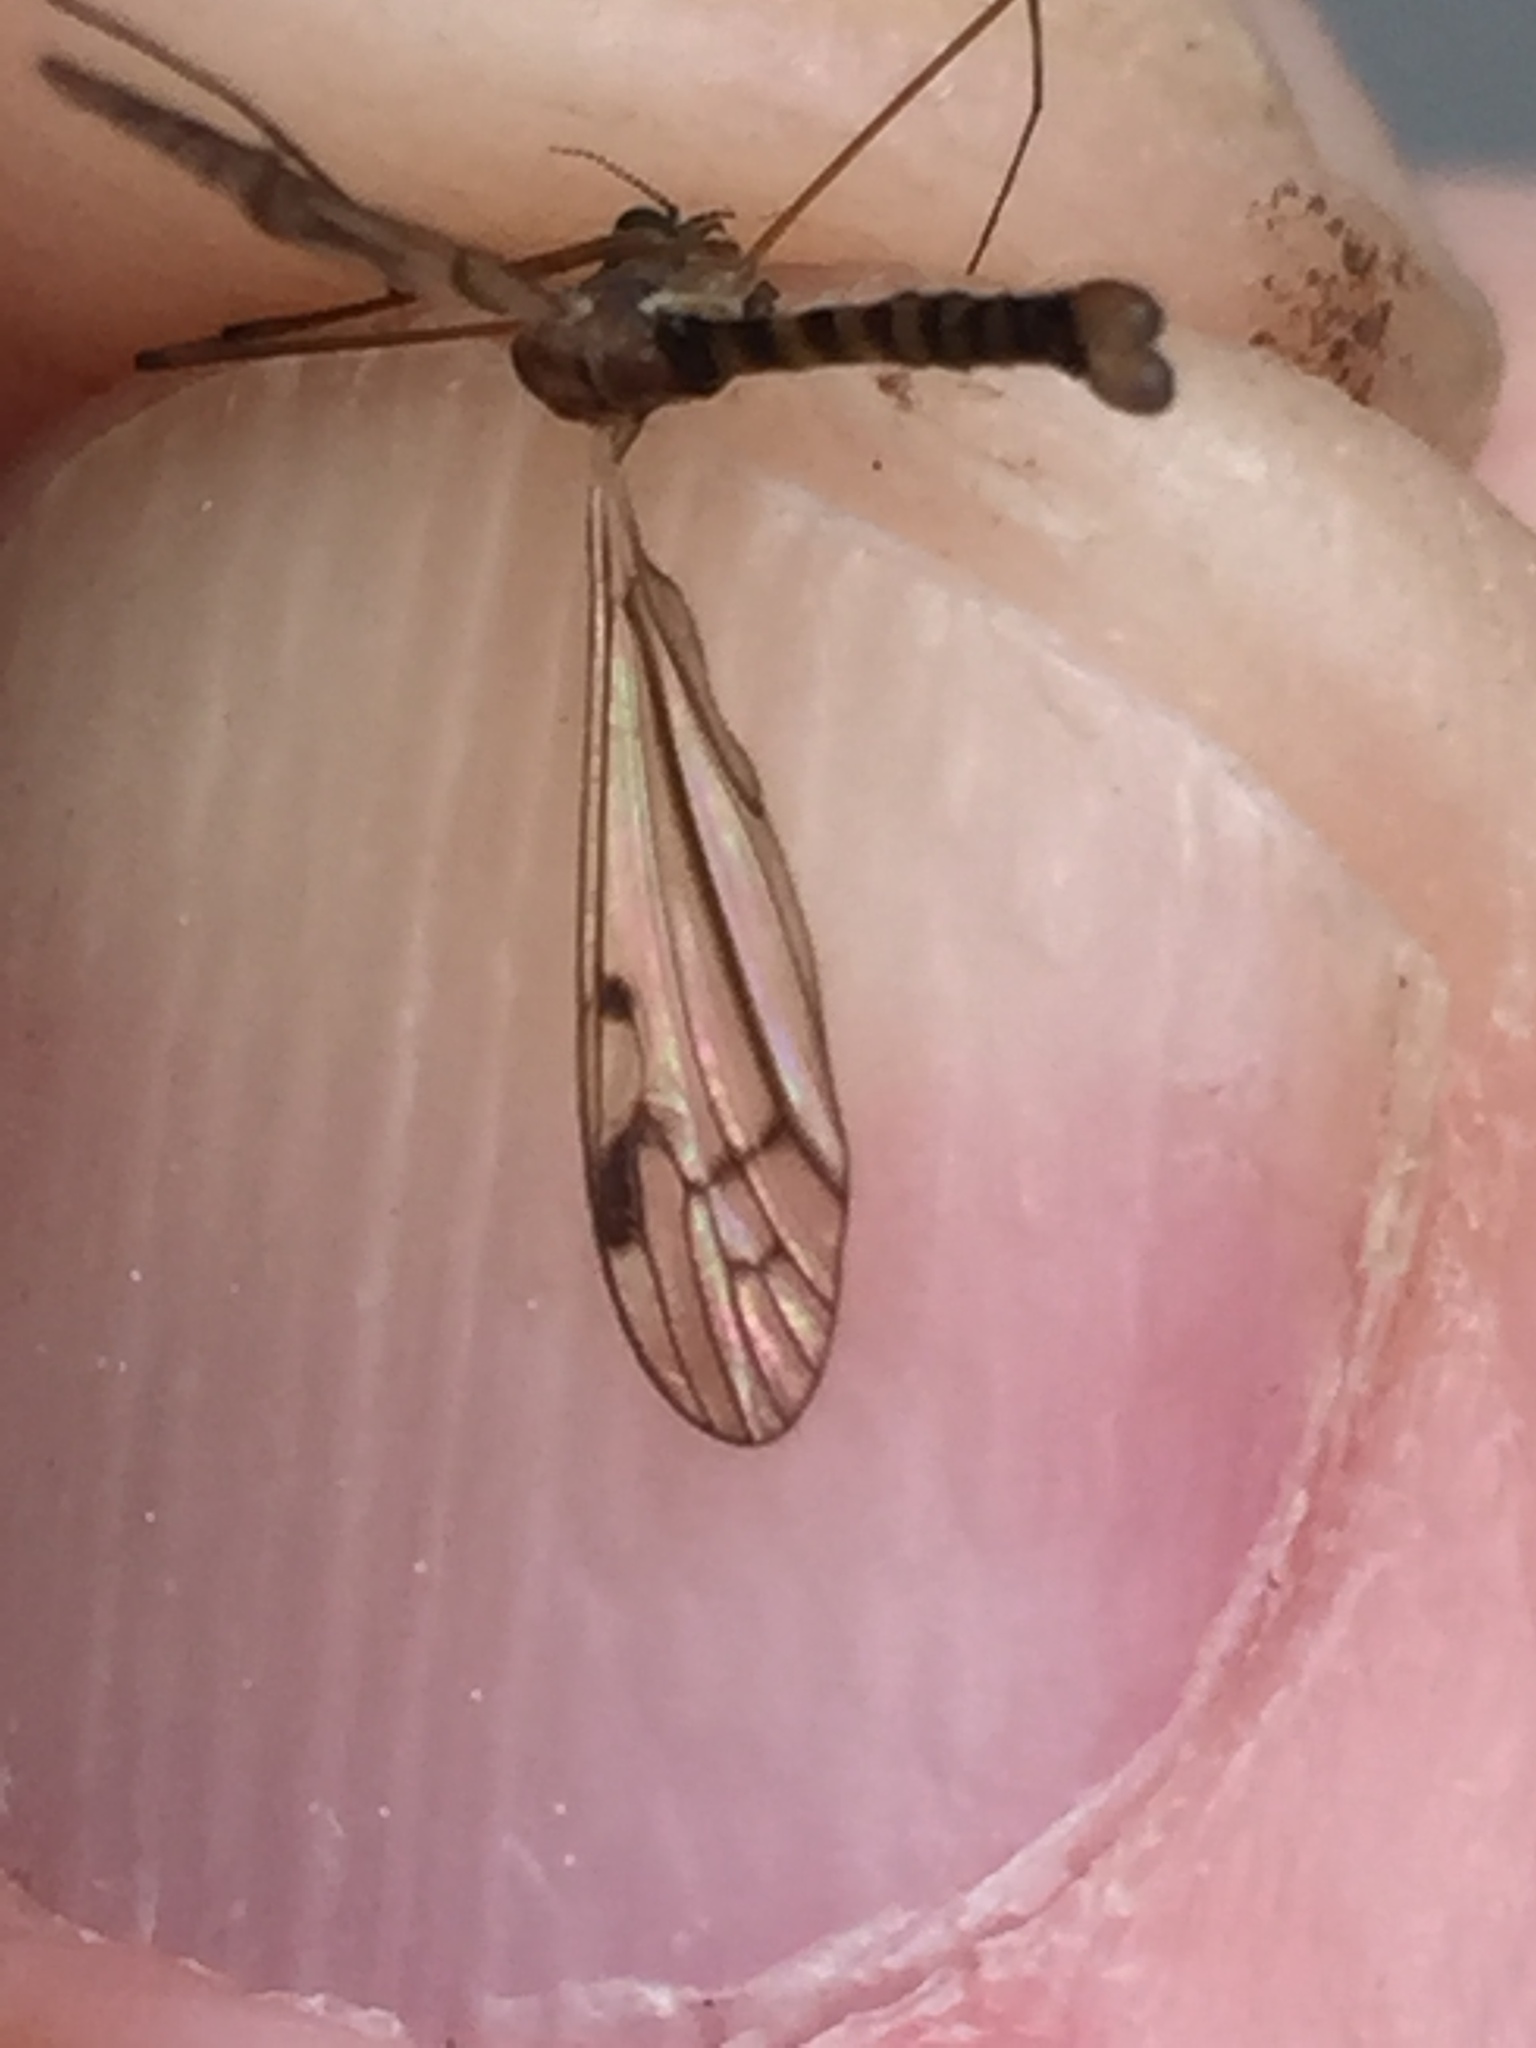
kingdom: Animalia
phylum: Arthropoda
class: Insecta
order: Diptera
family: Limoniidae
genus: Dicranomyia
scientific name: Dicranomyia crassipes
